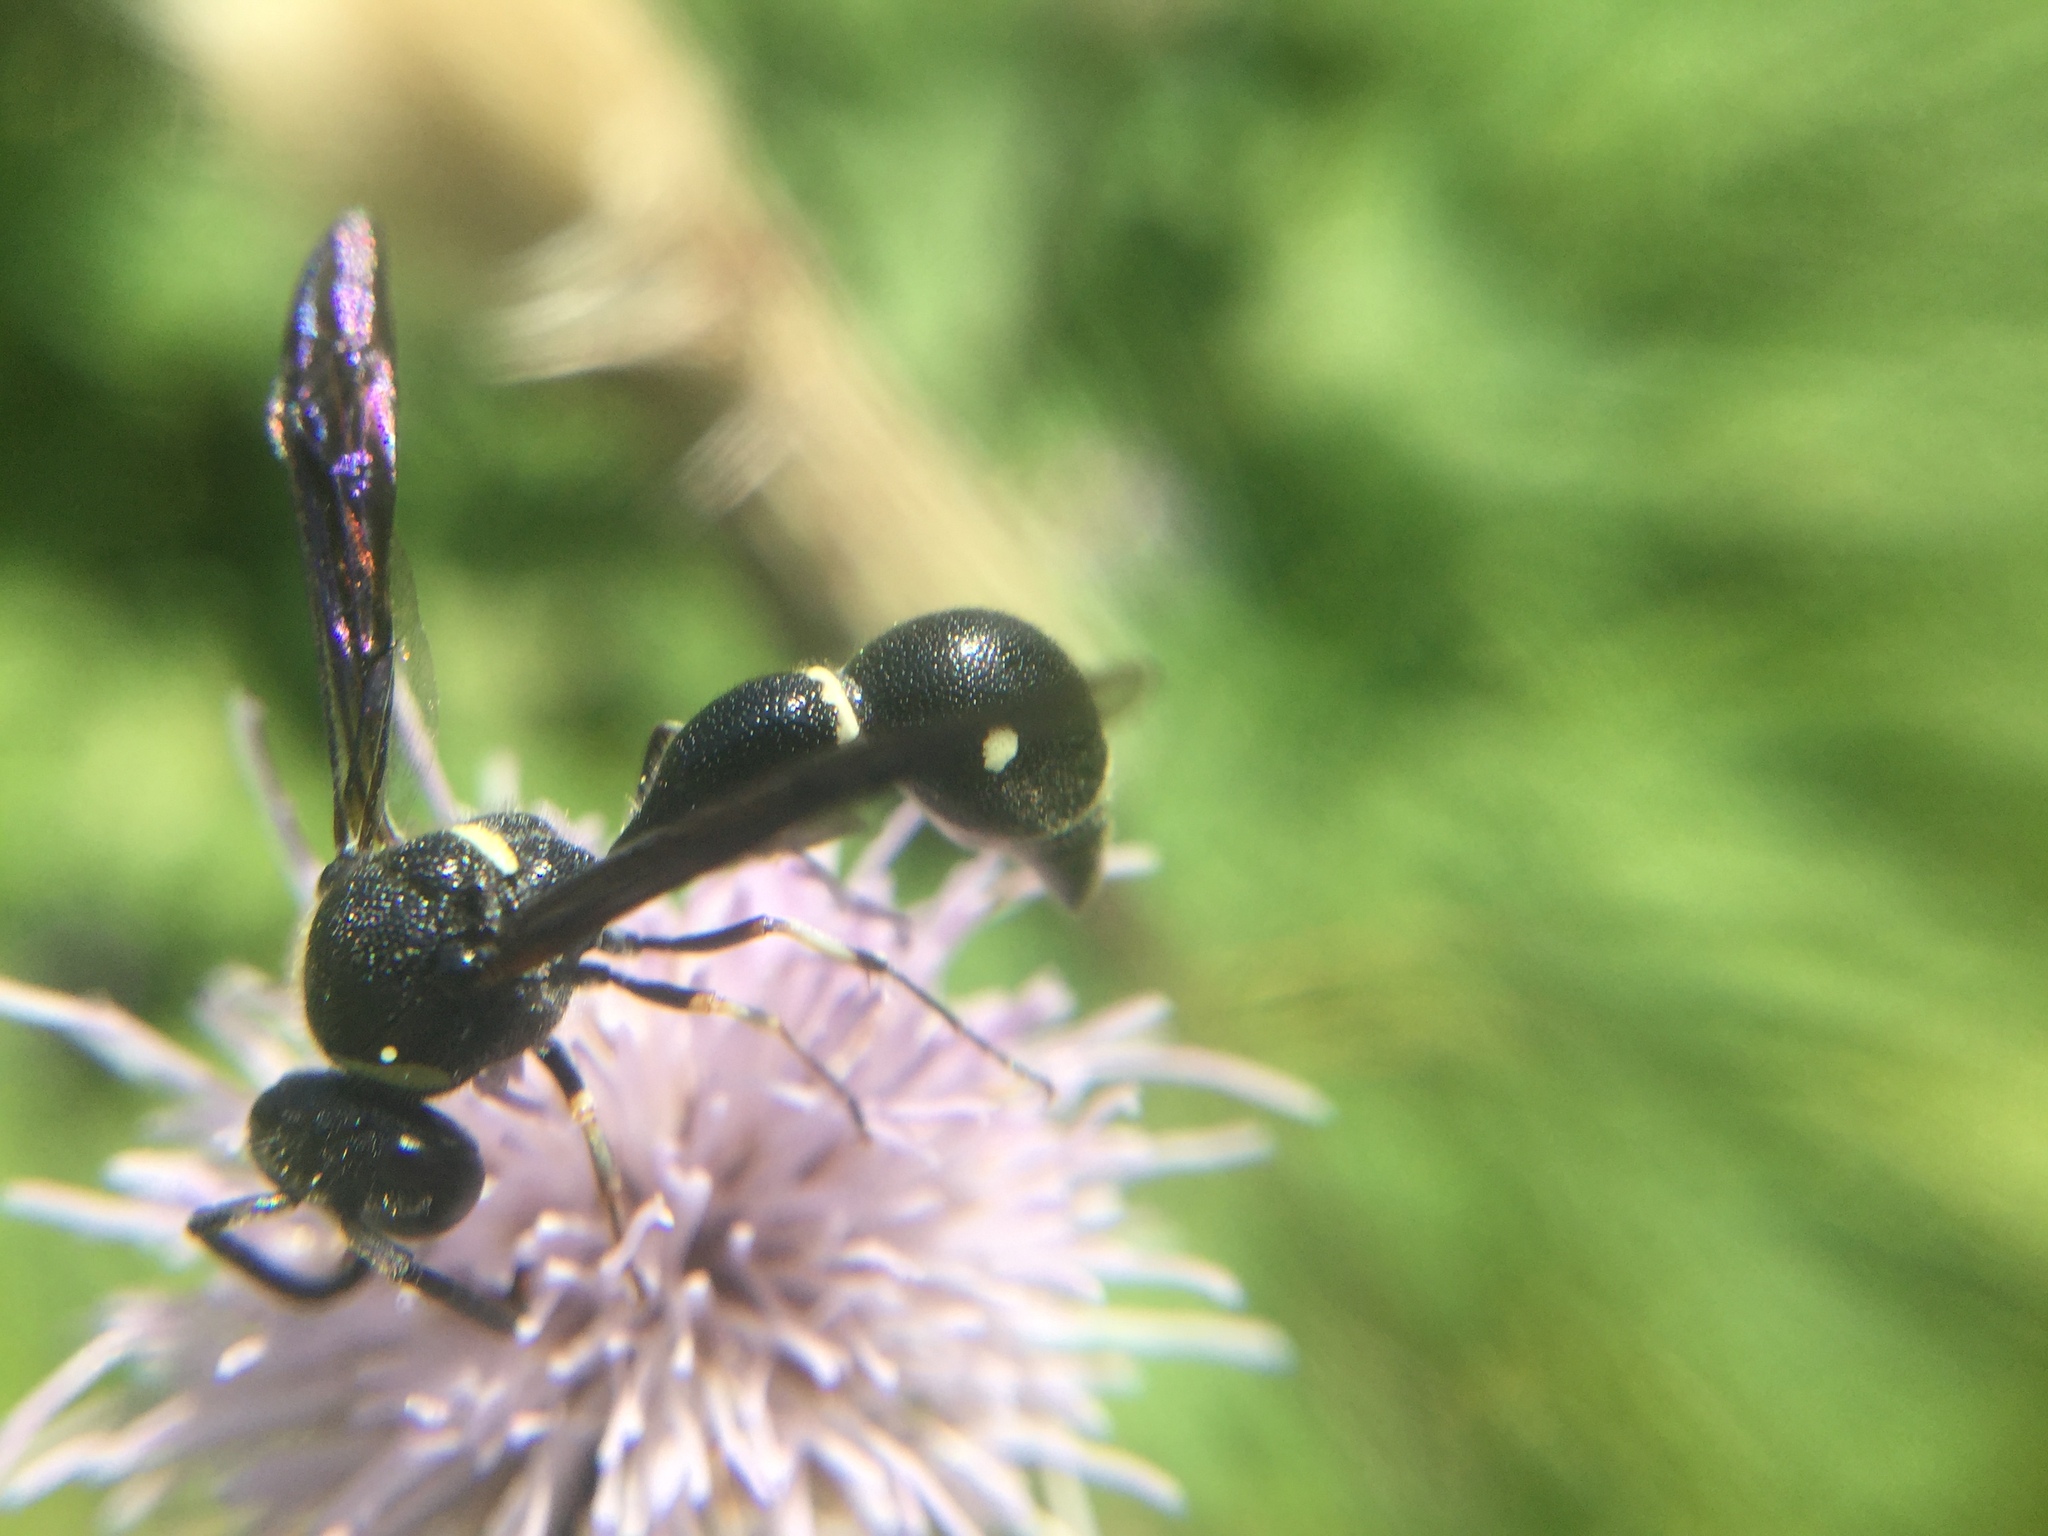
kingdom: Animalia
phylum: Arthropoda
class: Insecta
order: Hymenoptera
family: Vespidae
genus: Eumenes
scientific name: Eumenes fraternus
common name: Fraternal potter wasp
